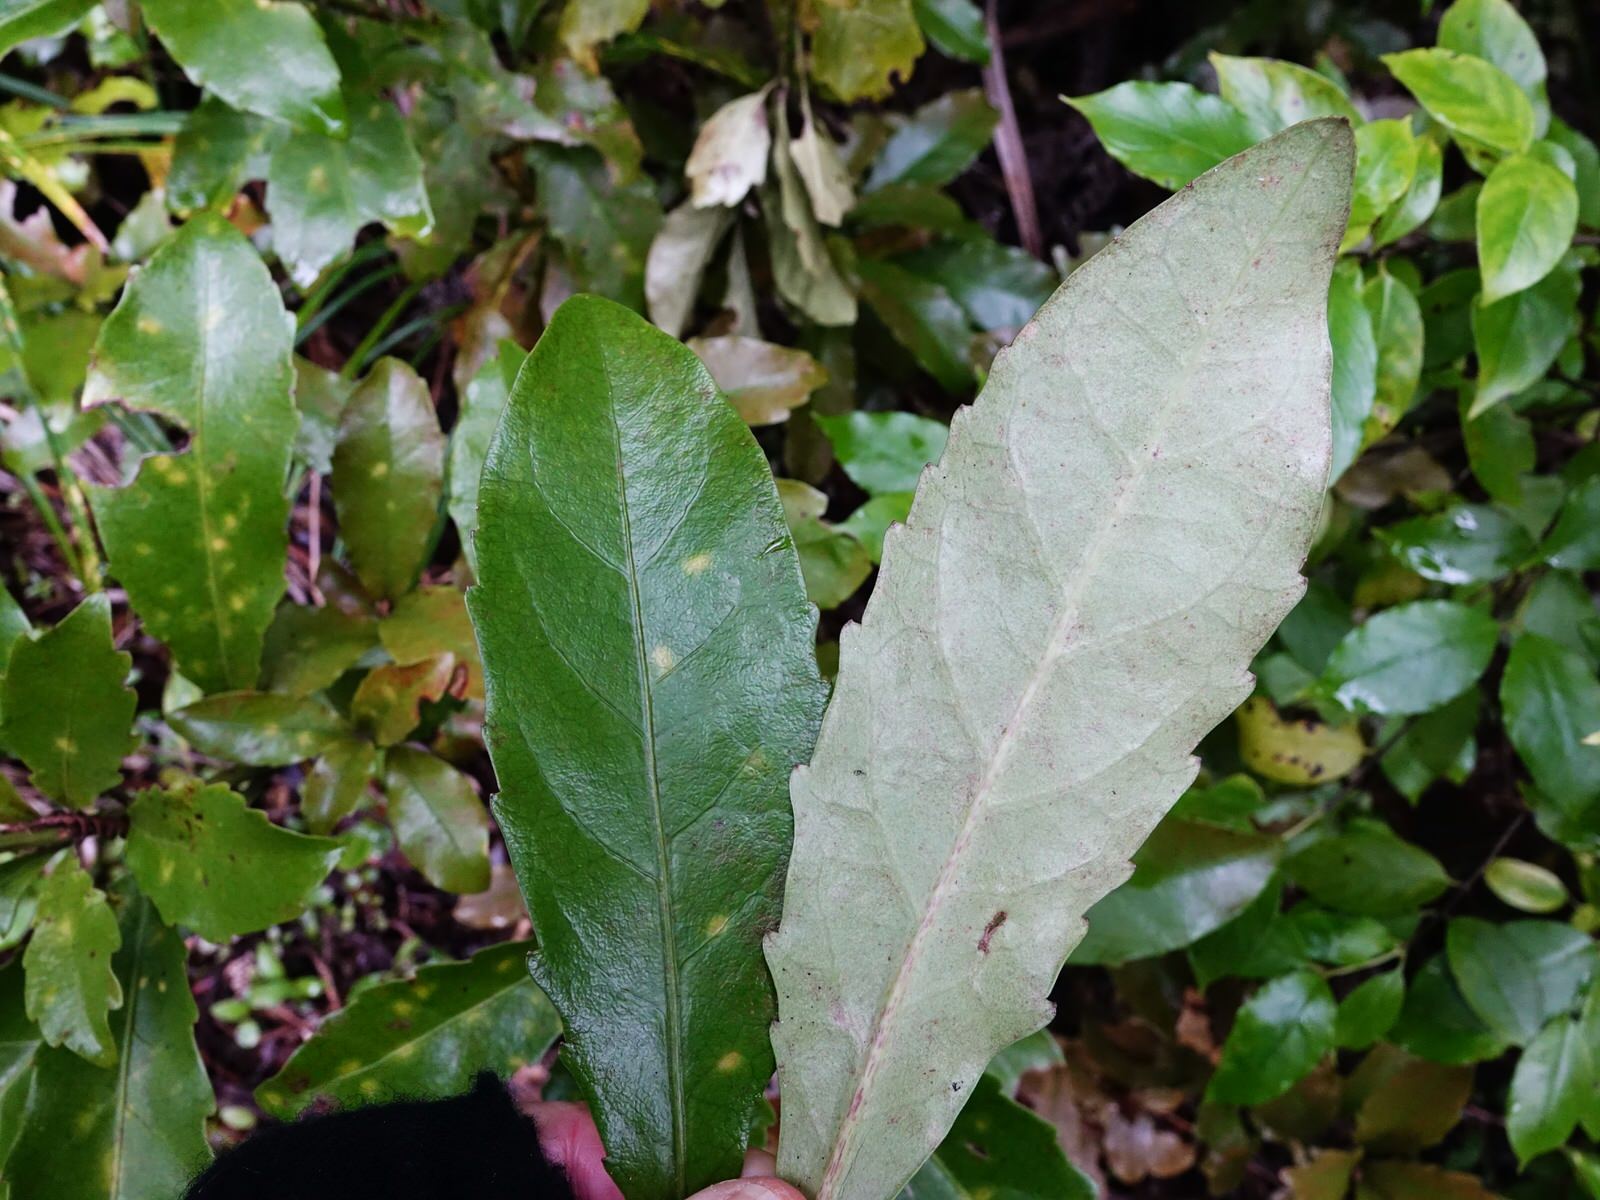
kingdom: Plantae
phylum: Tracheophyta
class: Magnoliopsida
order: Asterales
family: Alseuosmiaceae
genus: Alseuosmia
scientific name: Alseuosmia macrophylla
